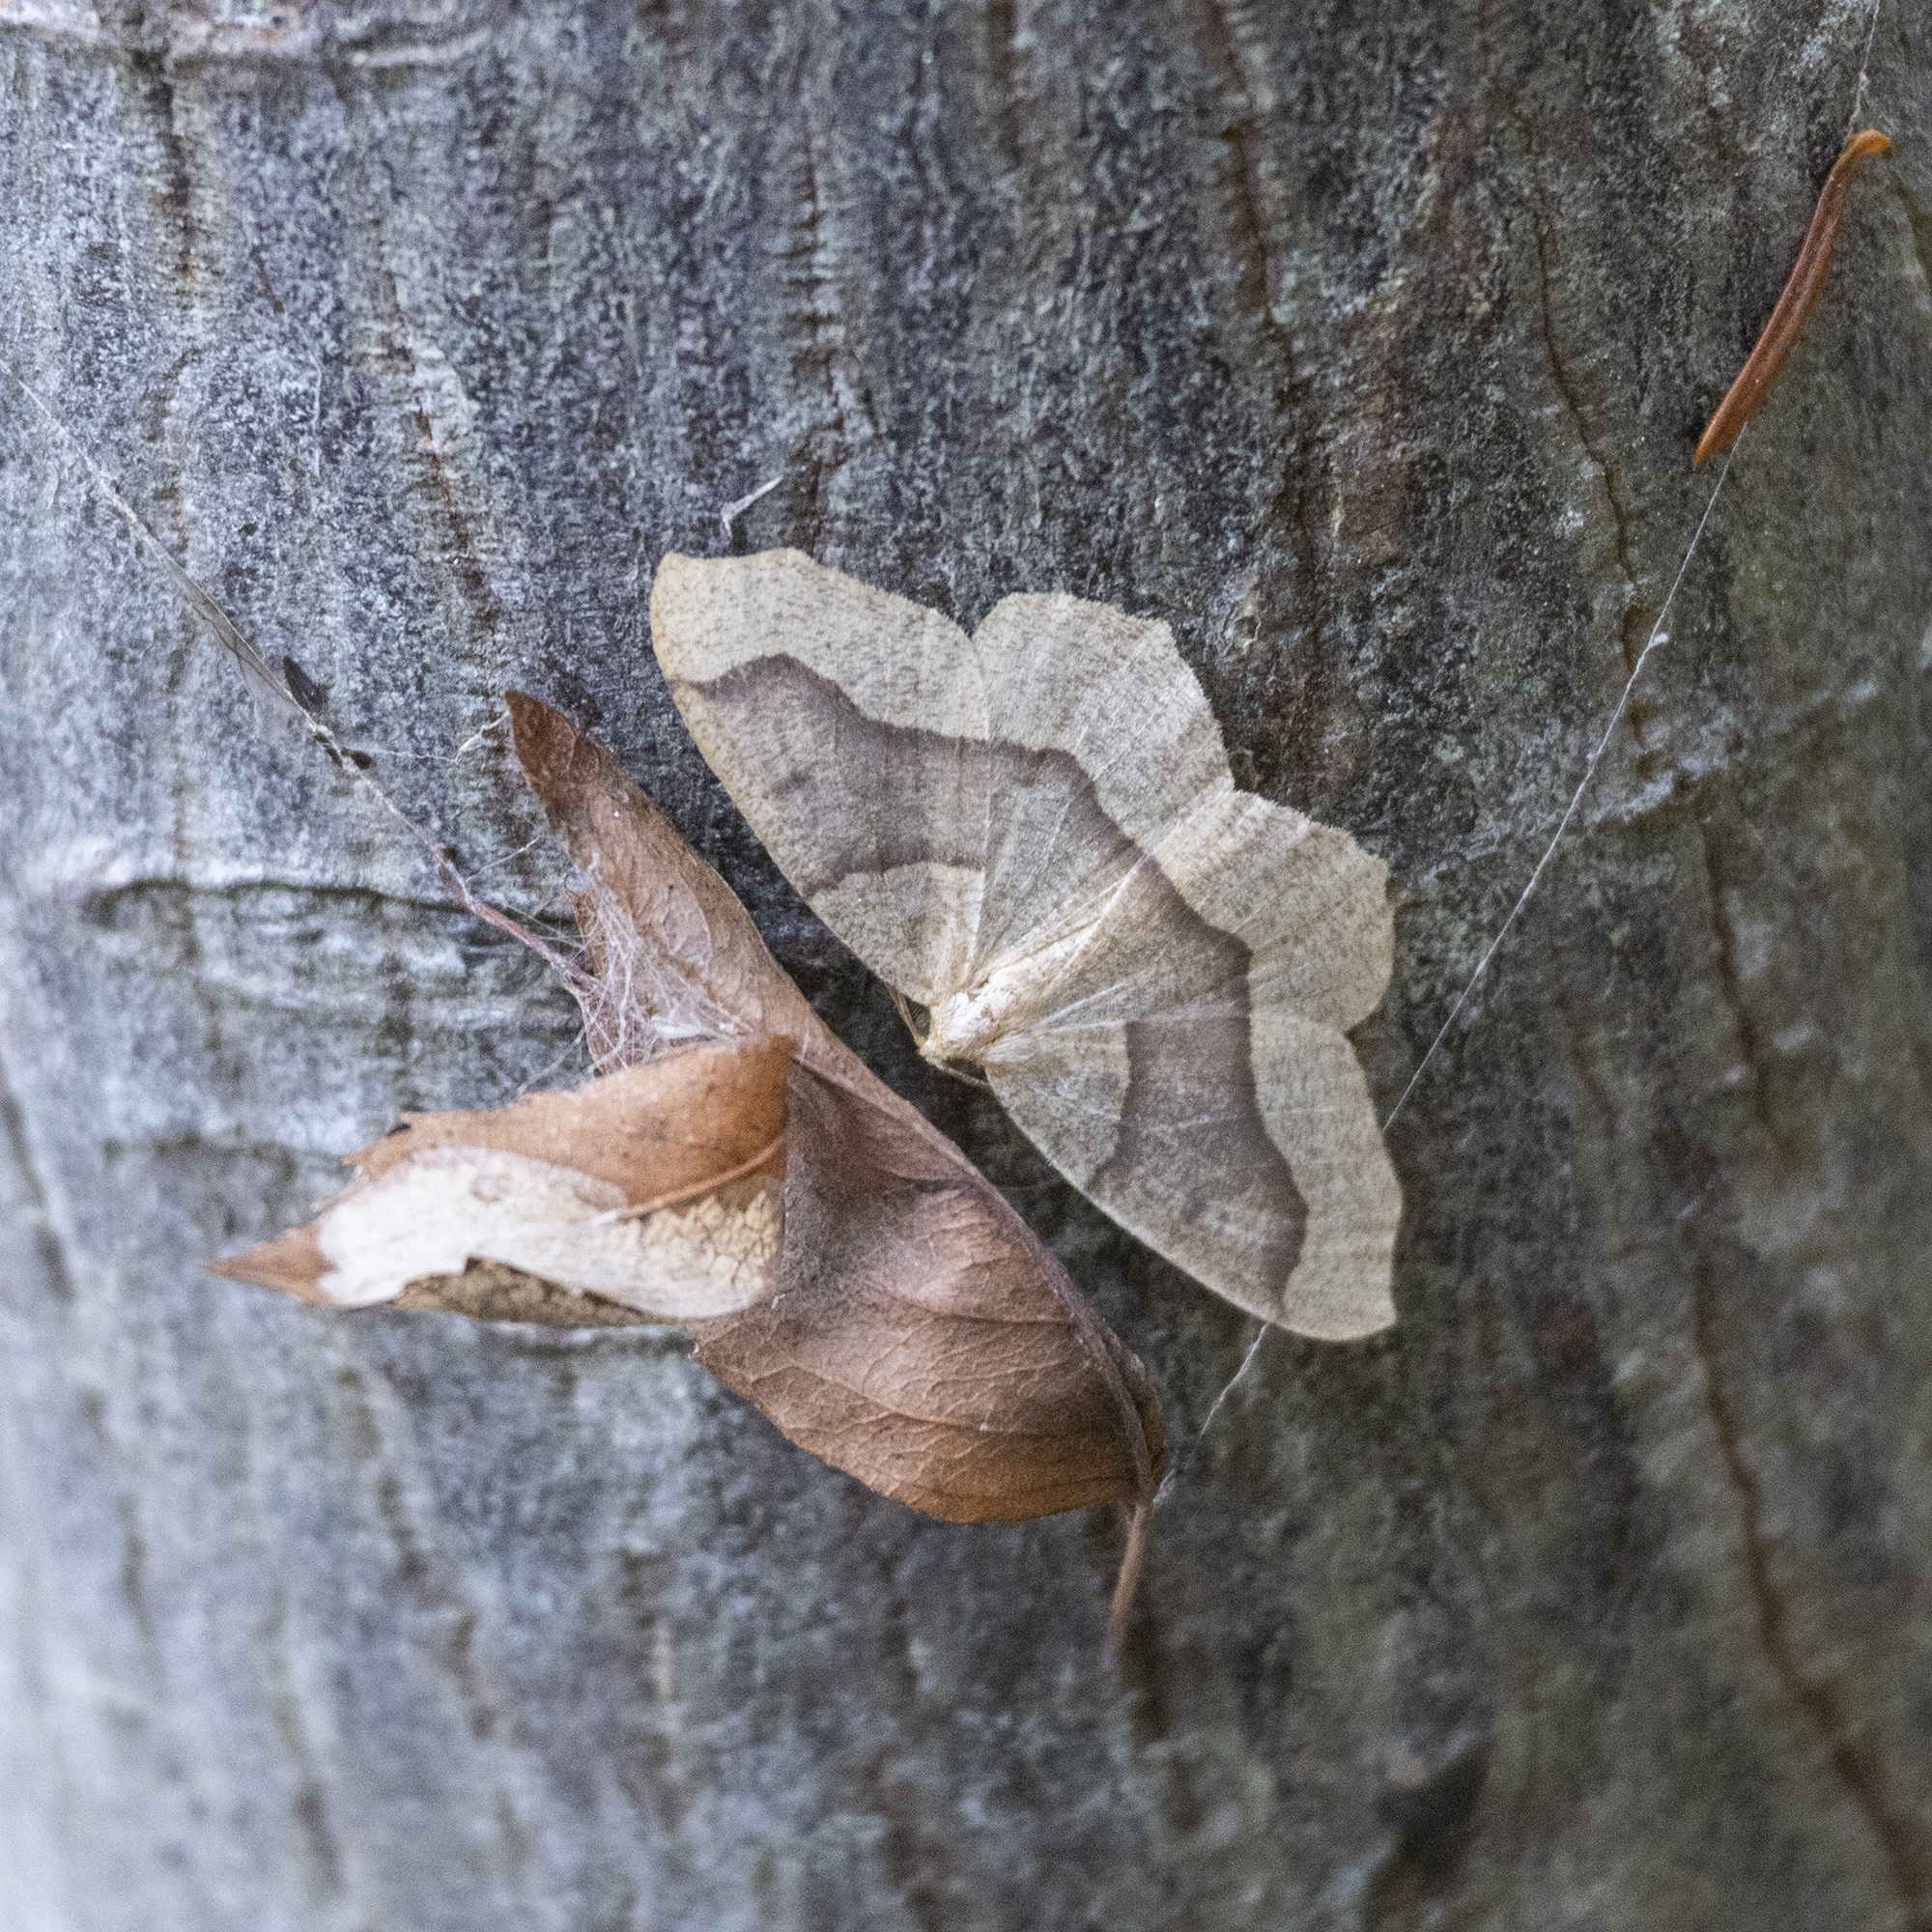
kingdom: Animalia
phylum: Arthropoda
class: Insecta
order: Lepidoptera
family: Geometridae
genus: Lambdina
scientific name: Lambdina fiscellaria
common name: Hemlock looper
